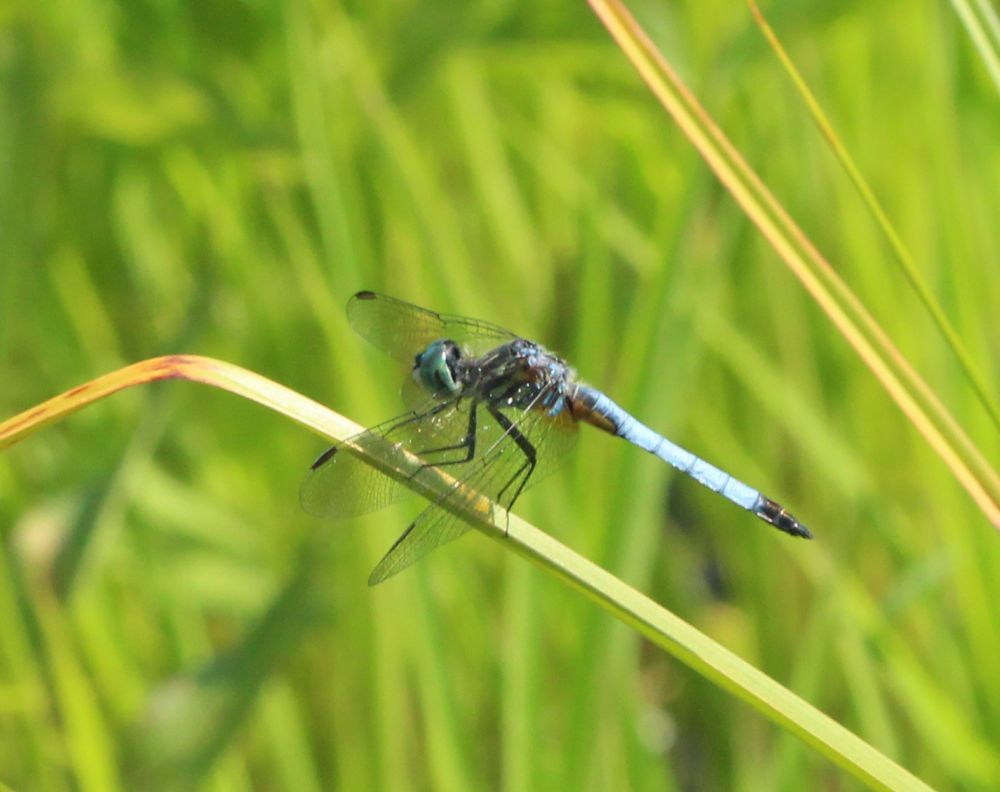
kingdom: Animalia
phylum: Arthropoda
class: Insecta
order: Odonata
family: Libellulidae
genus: Pachydiplax
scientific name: Pachydiplax longipennis
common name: Blue dasher
